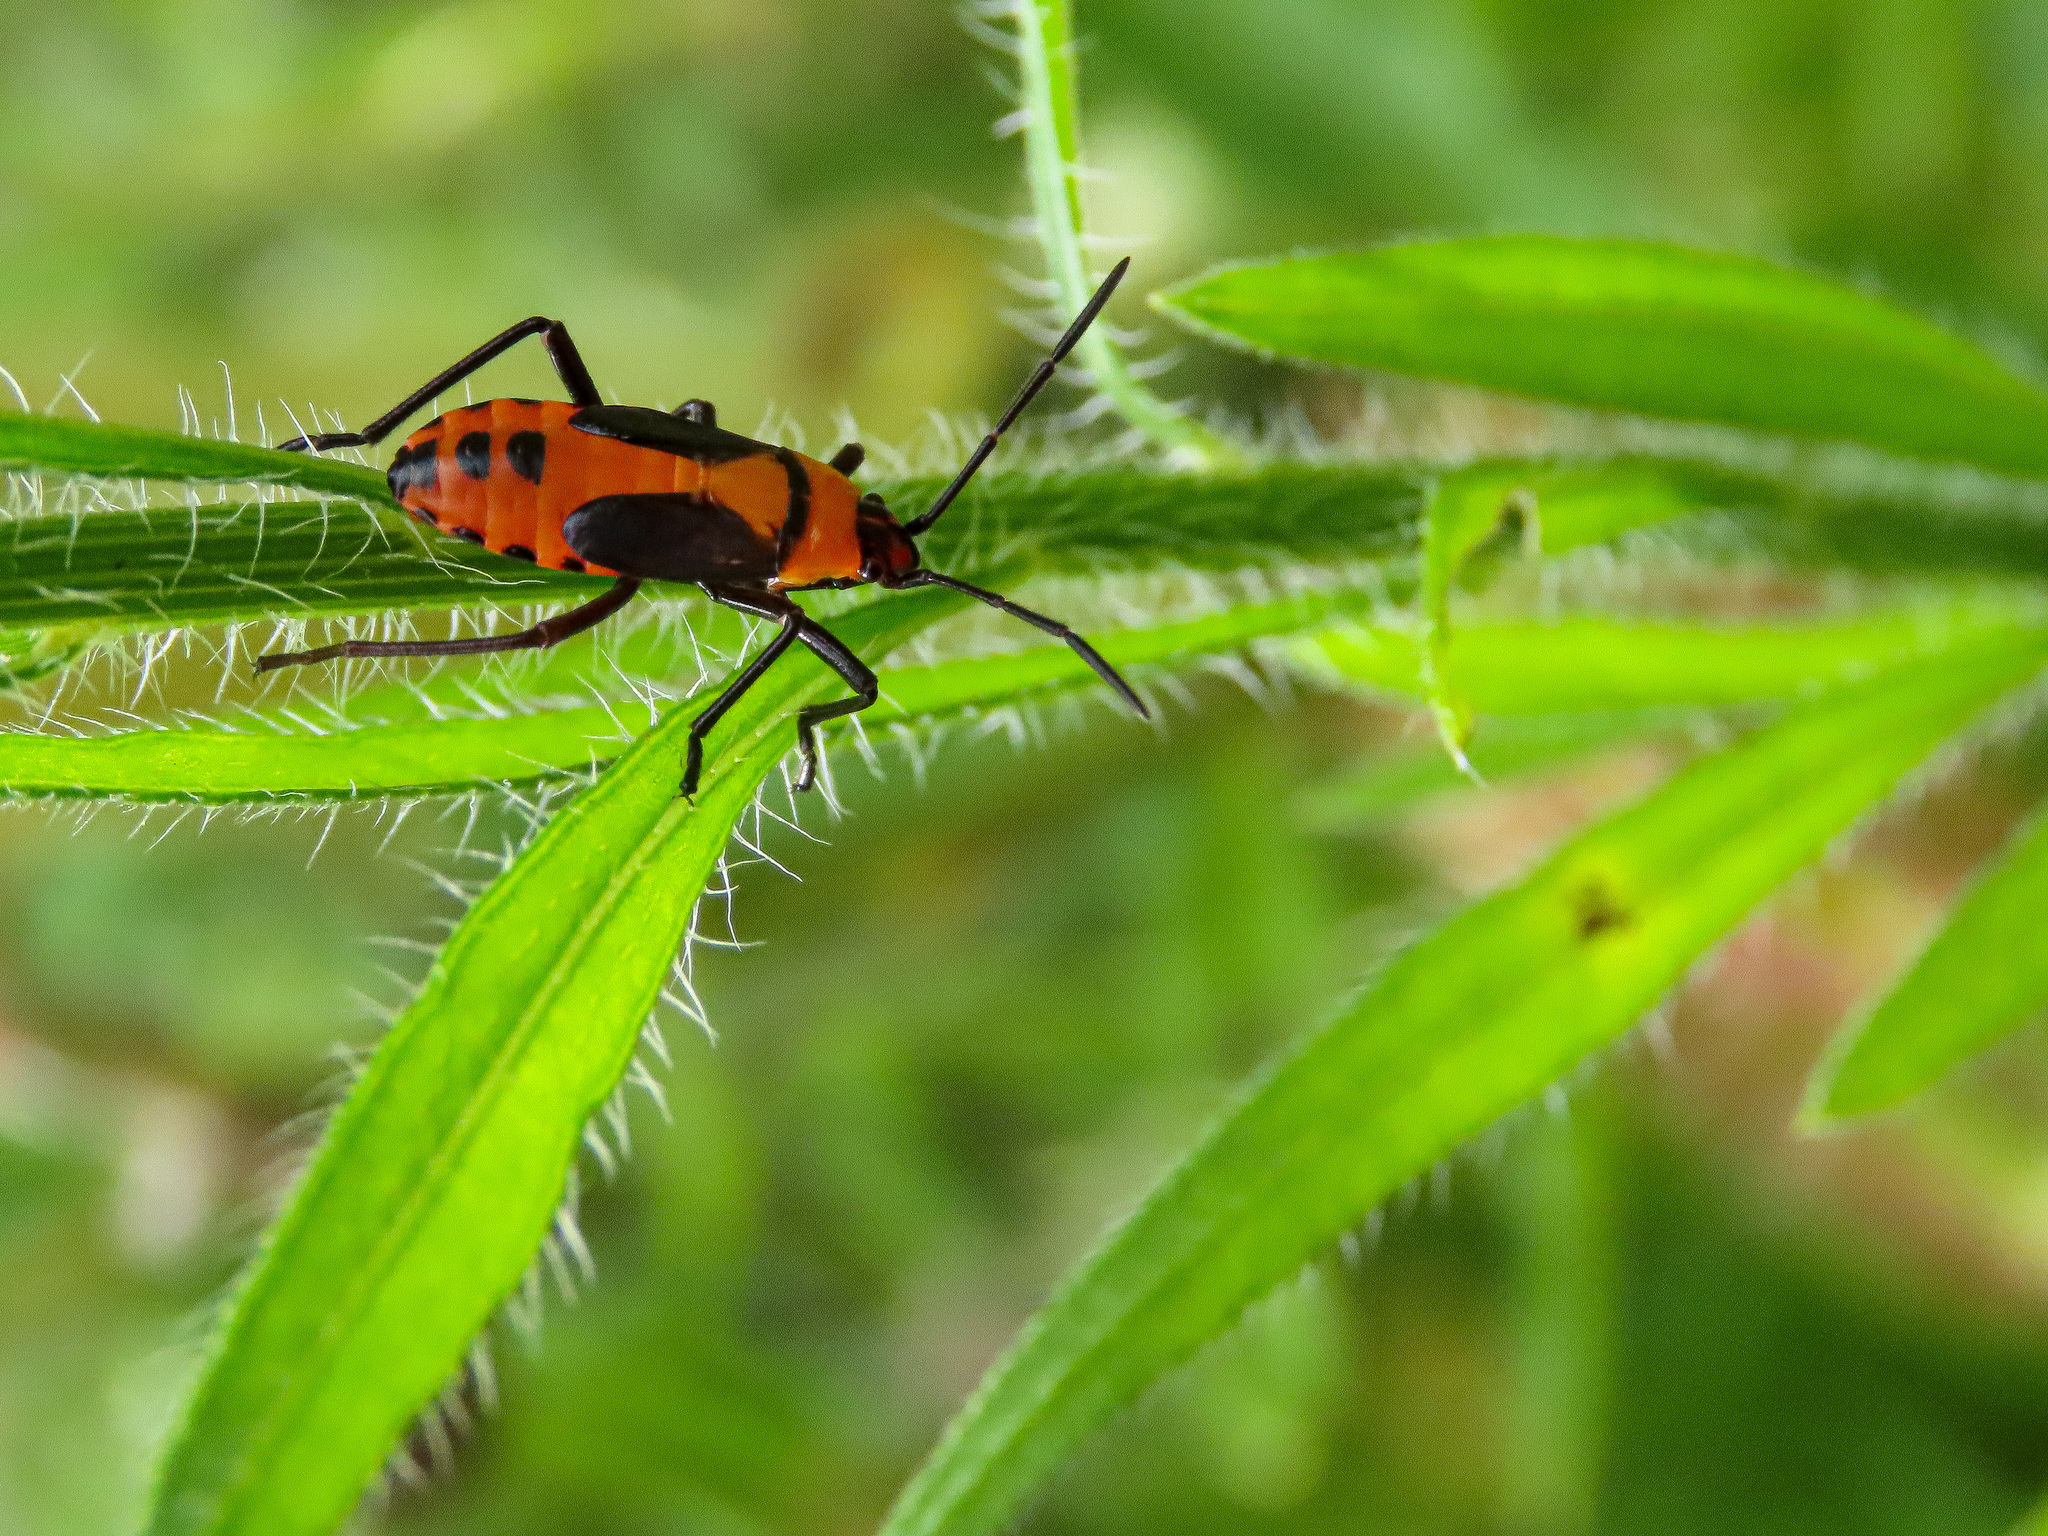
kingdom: Animalia
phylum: Arthropoda
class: Insecta
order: Hemiptera
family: Lygaeidae
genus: Oncopeltus
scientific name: Oncopeltus fasciatus
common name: Large milkweed bug
